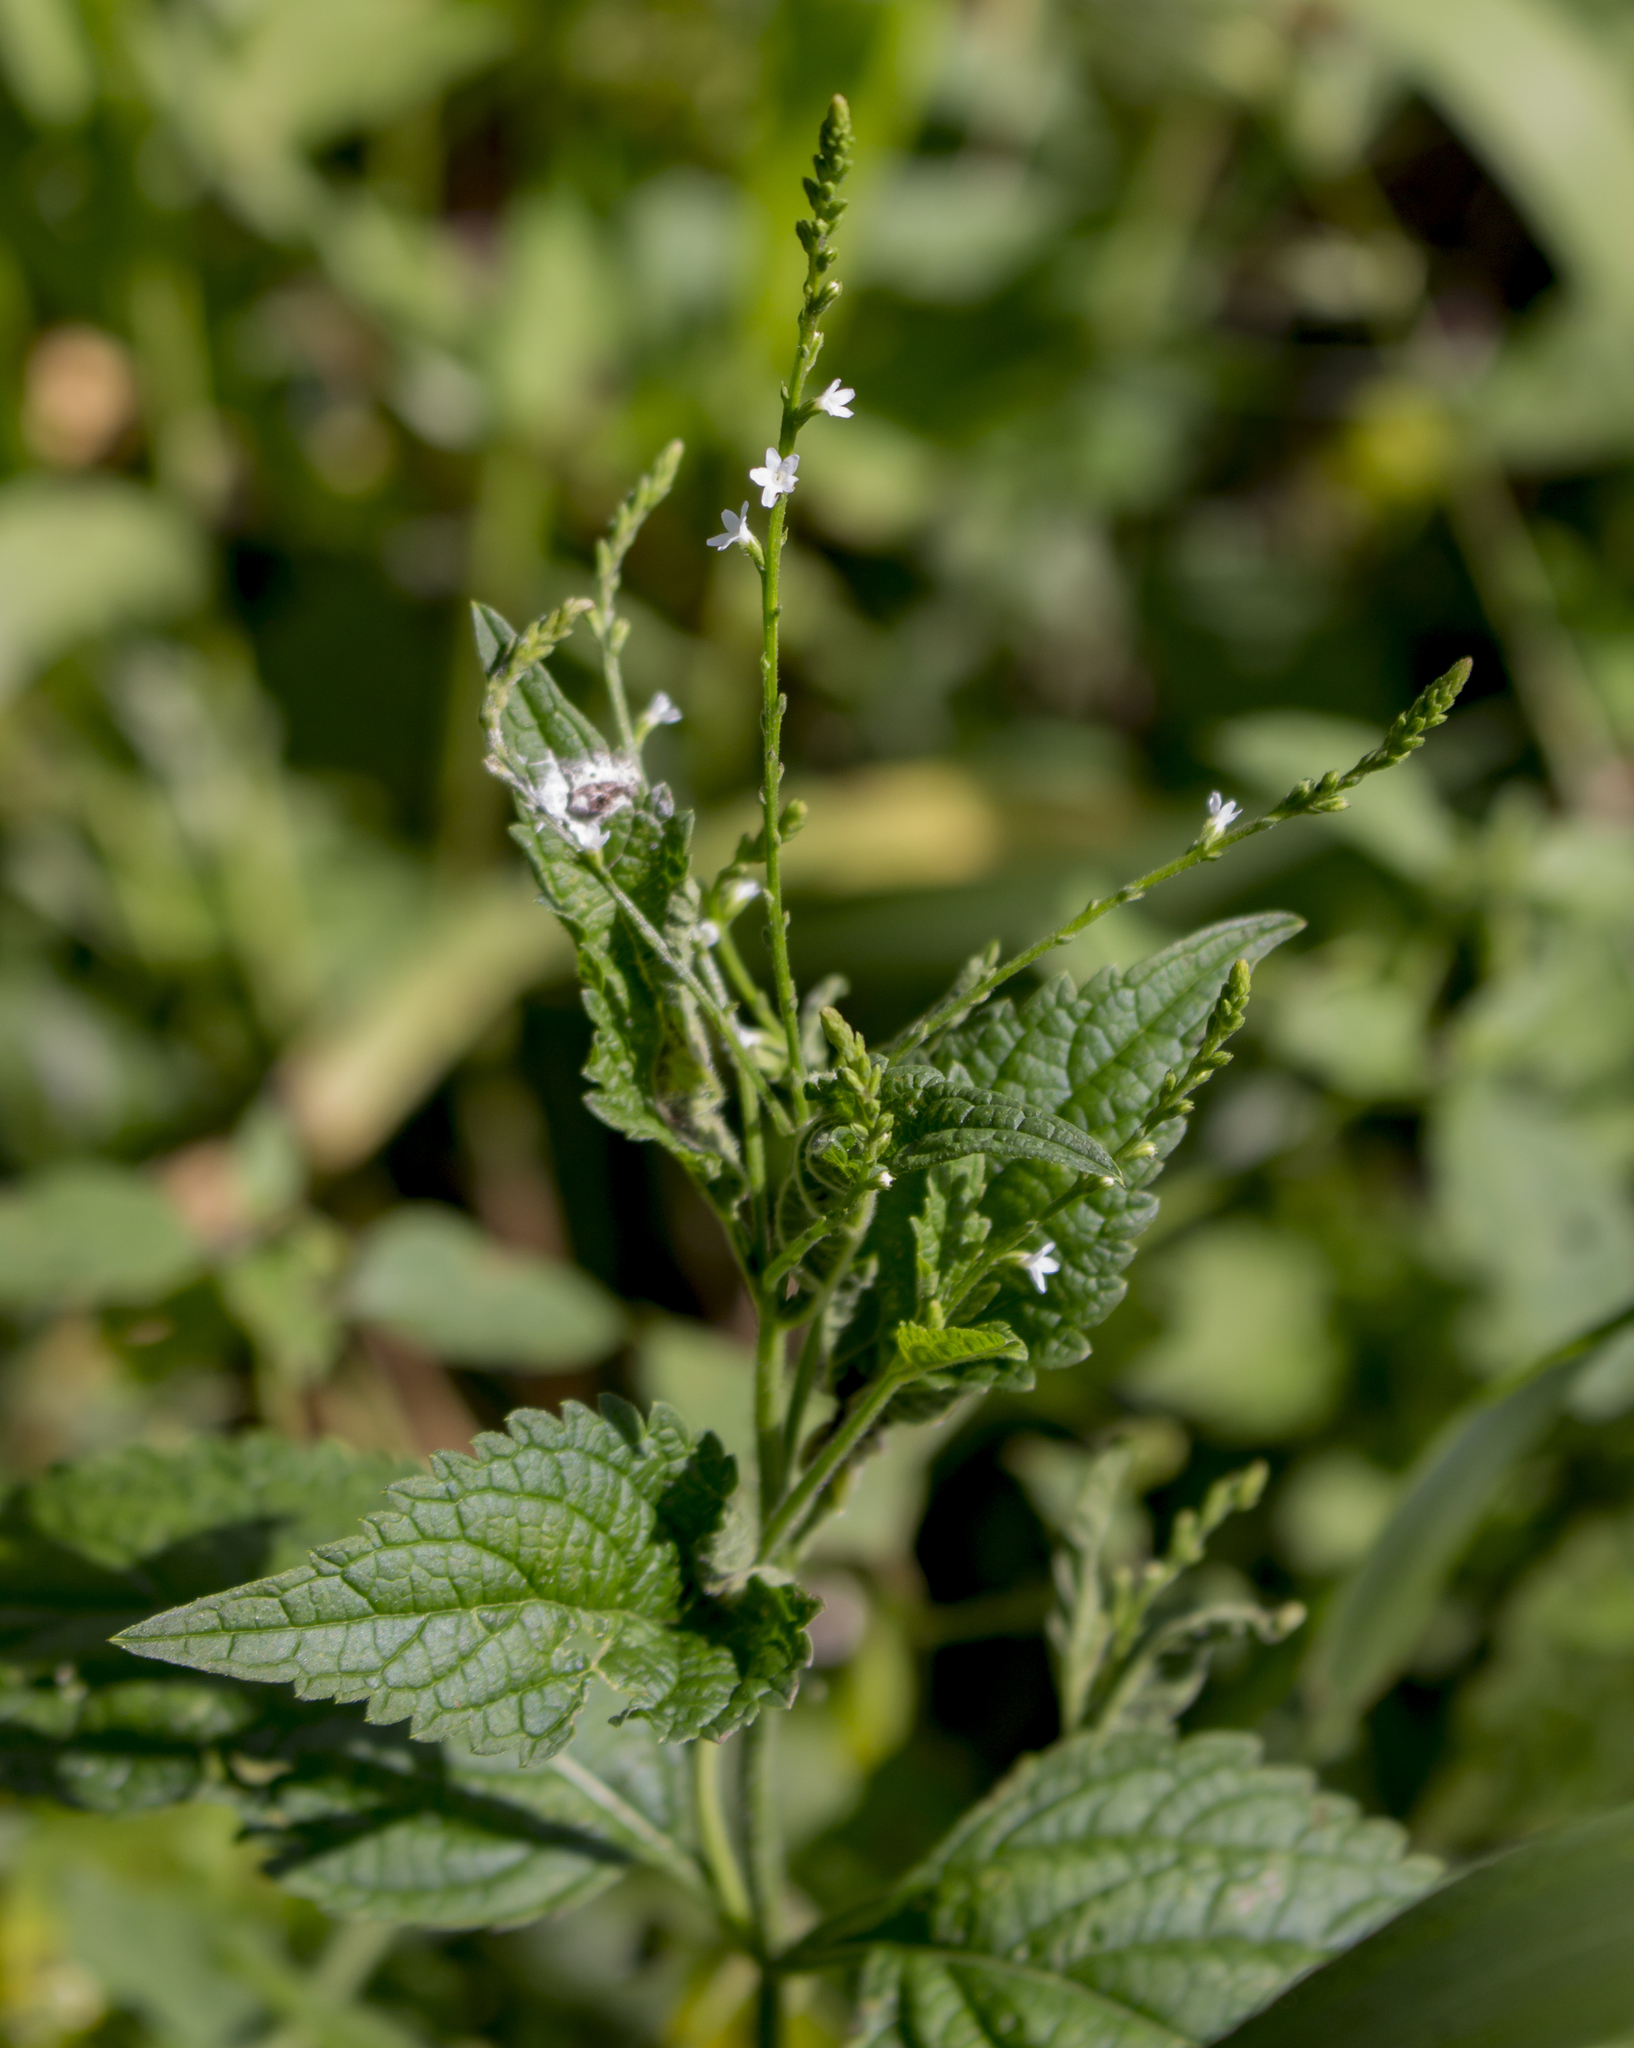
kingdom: Plantae
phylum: Tracheophyta
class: Magnoliopsida
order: Lamiales
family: Verbenaceae
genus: Verbena
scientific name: Verbena urticifolia
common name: Nettle-leaved vervain
